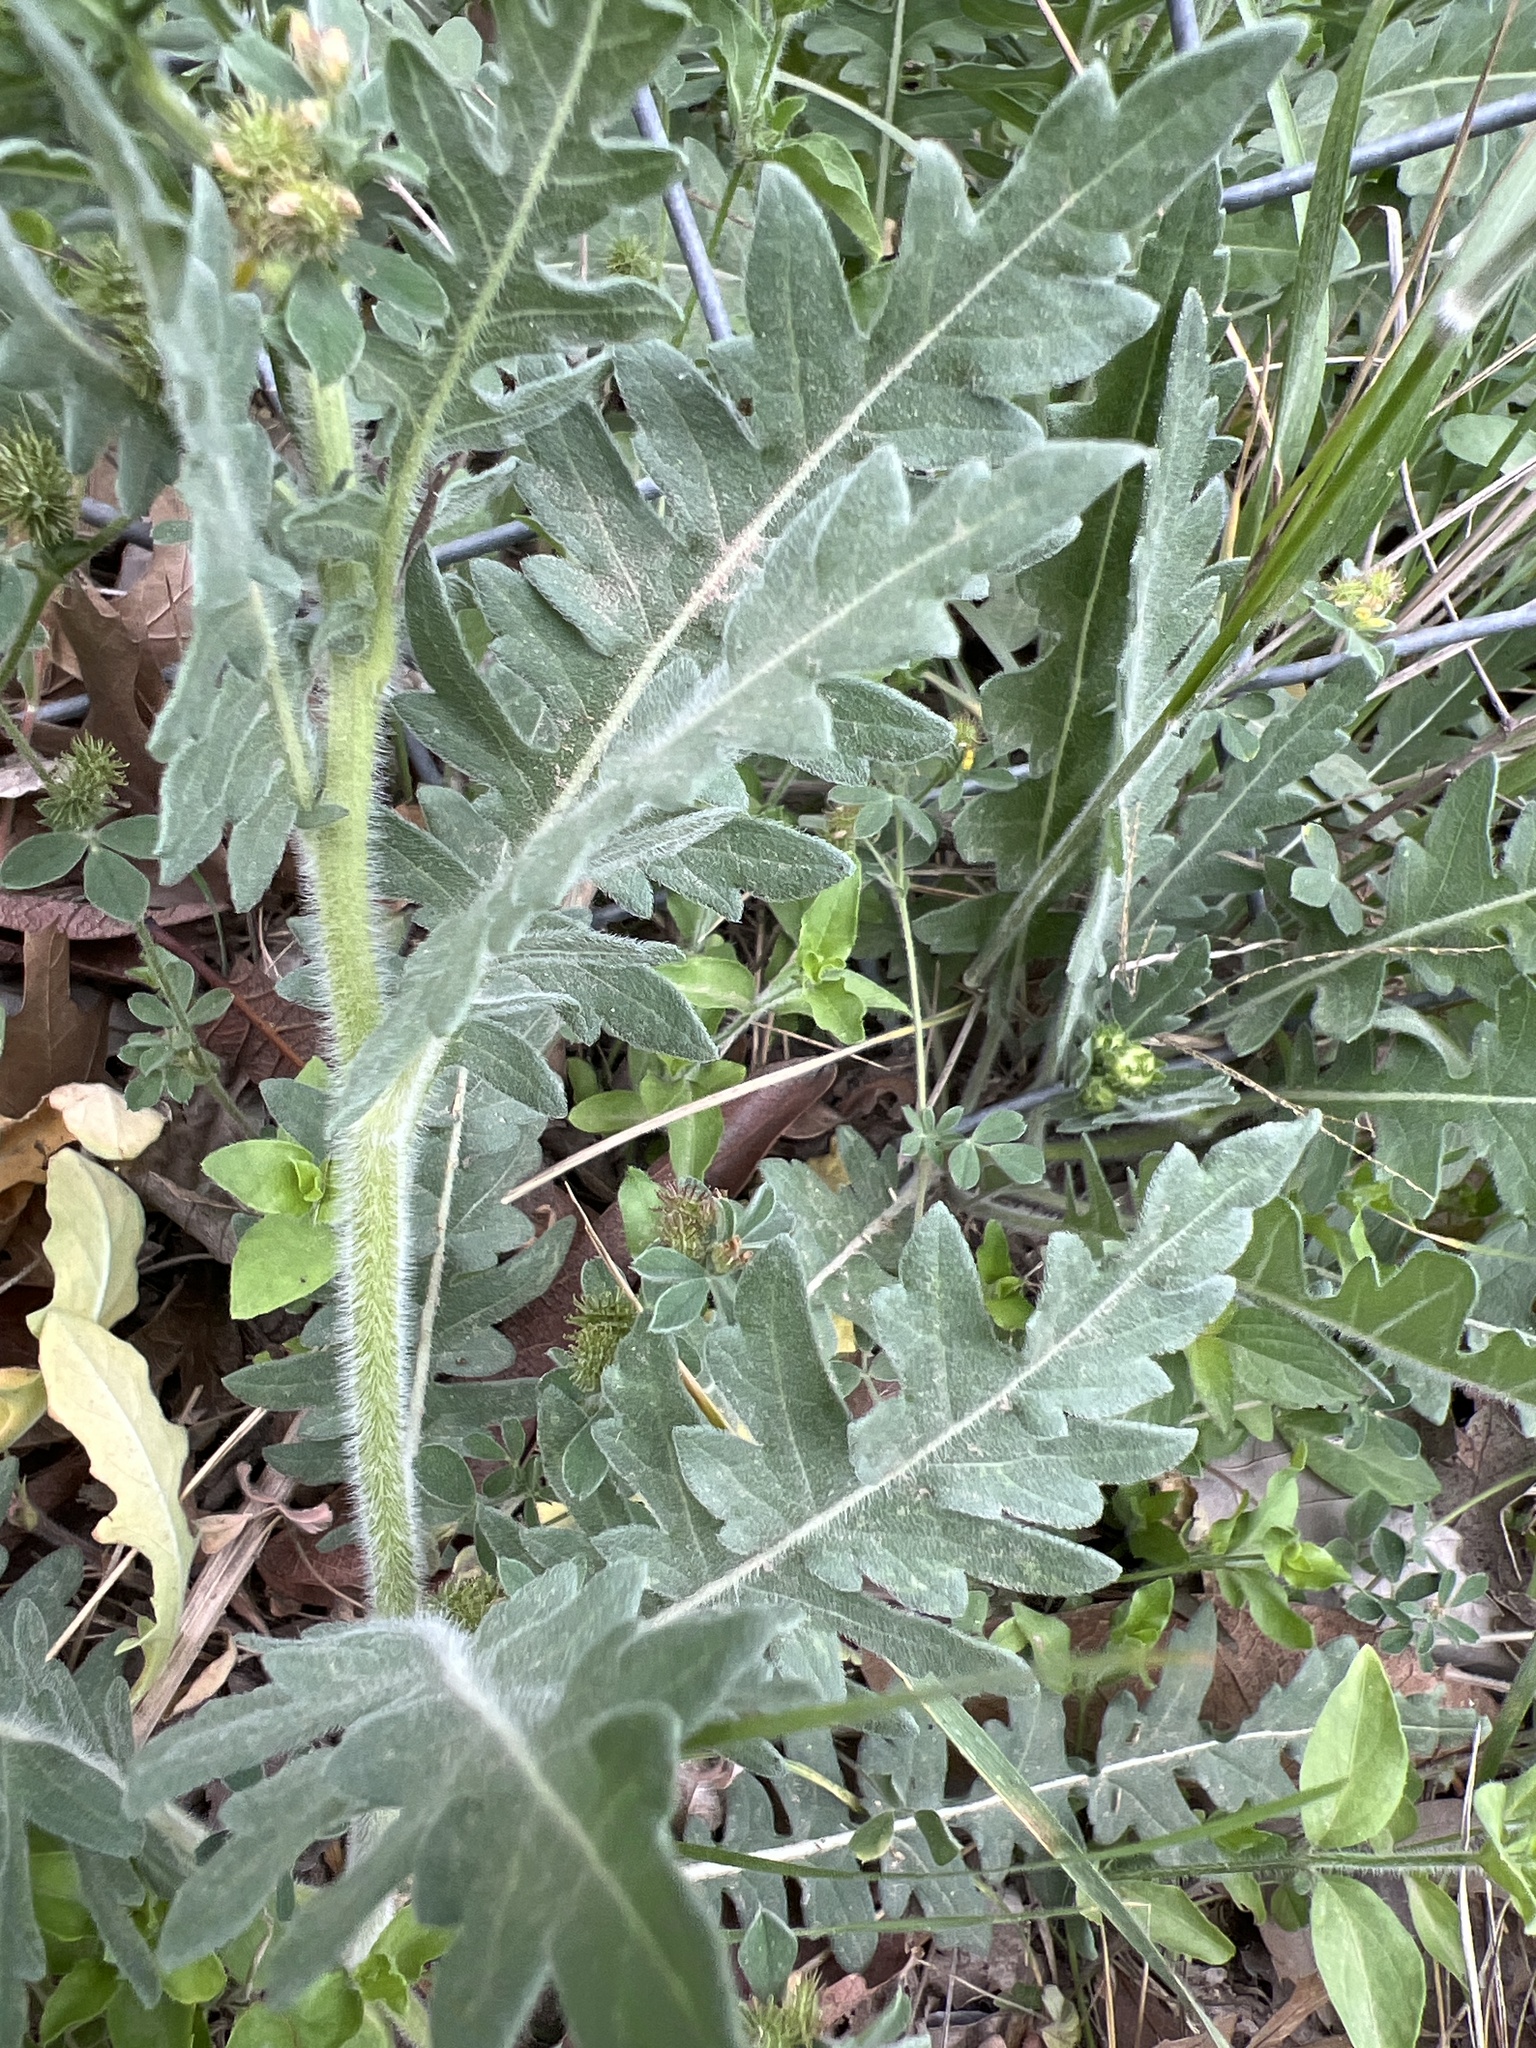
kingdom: Plantae
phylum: Tracheophyta
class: Magnoliopsida
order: Asterales
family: Asteraceae
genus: Engelmannia
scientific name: Engelmannia peristenia
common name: Engelmann's daisy
